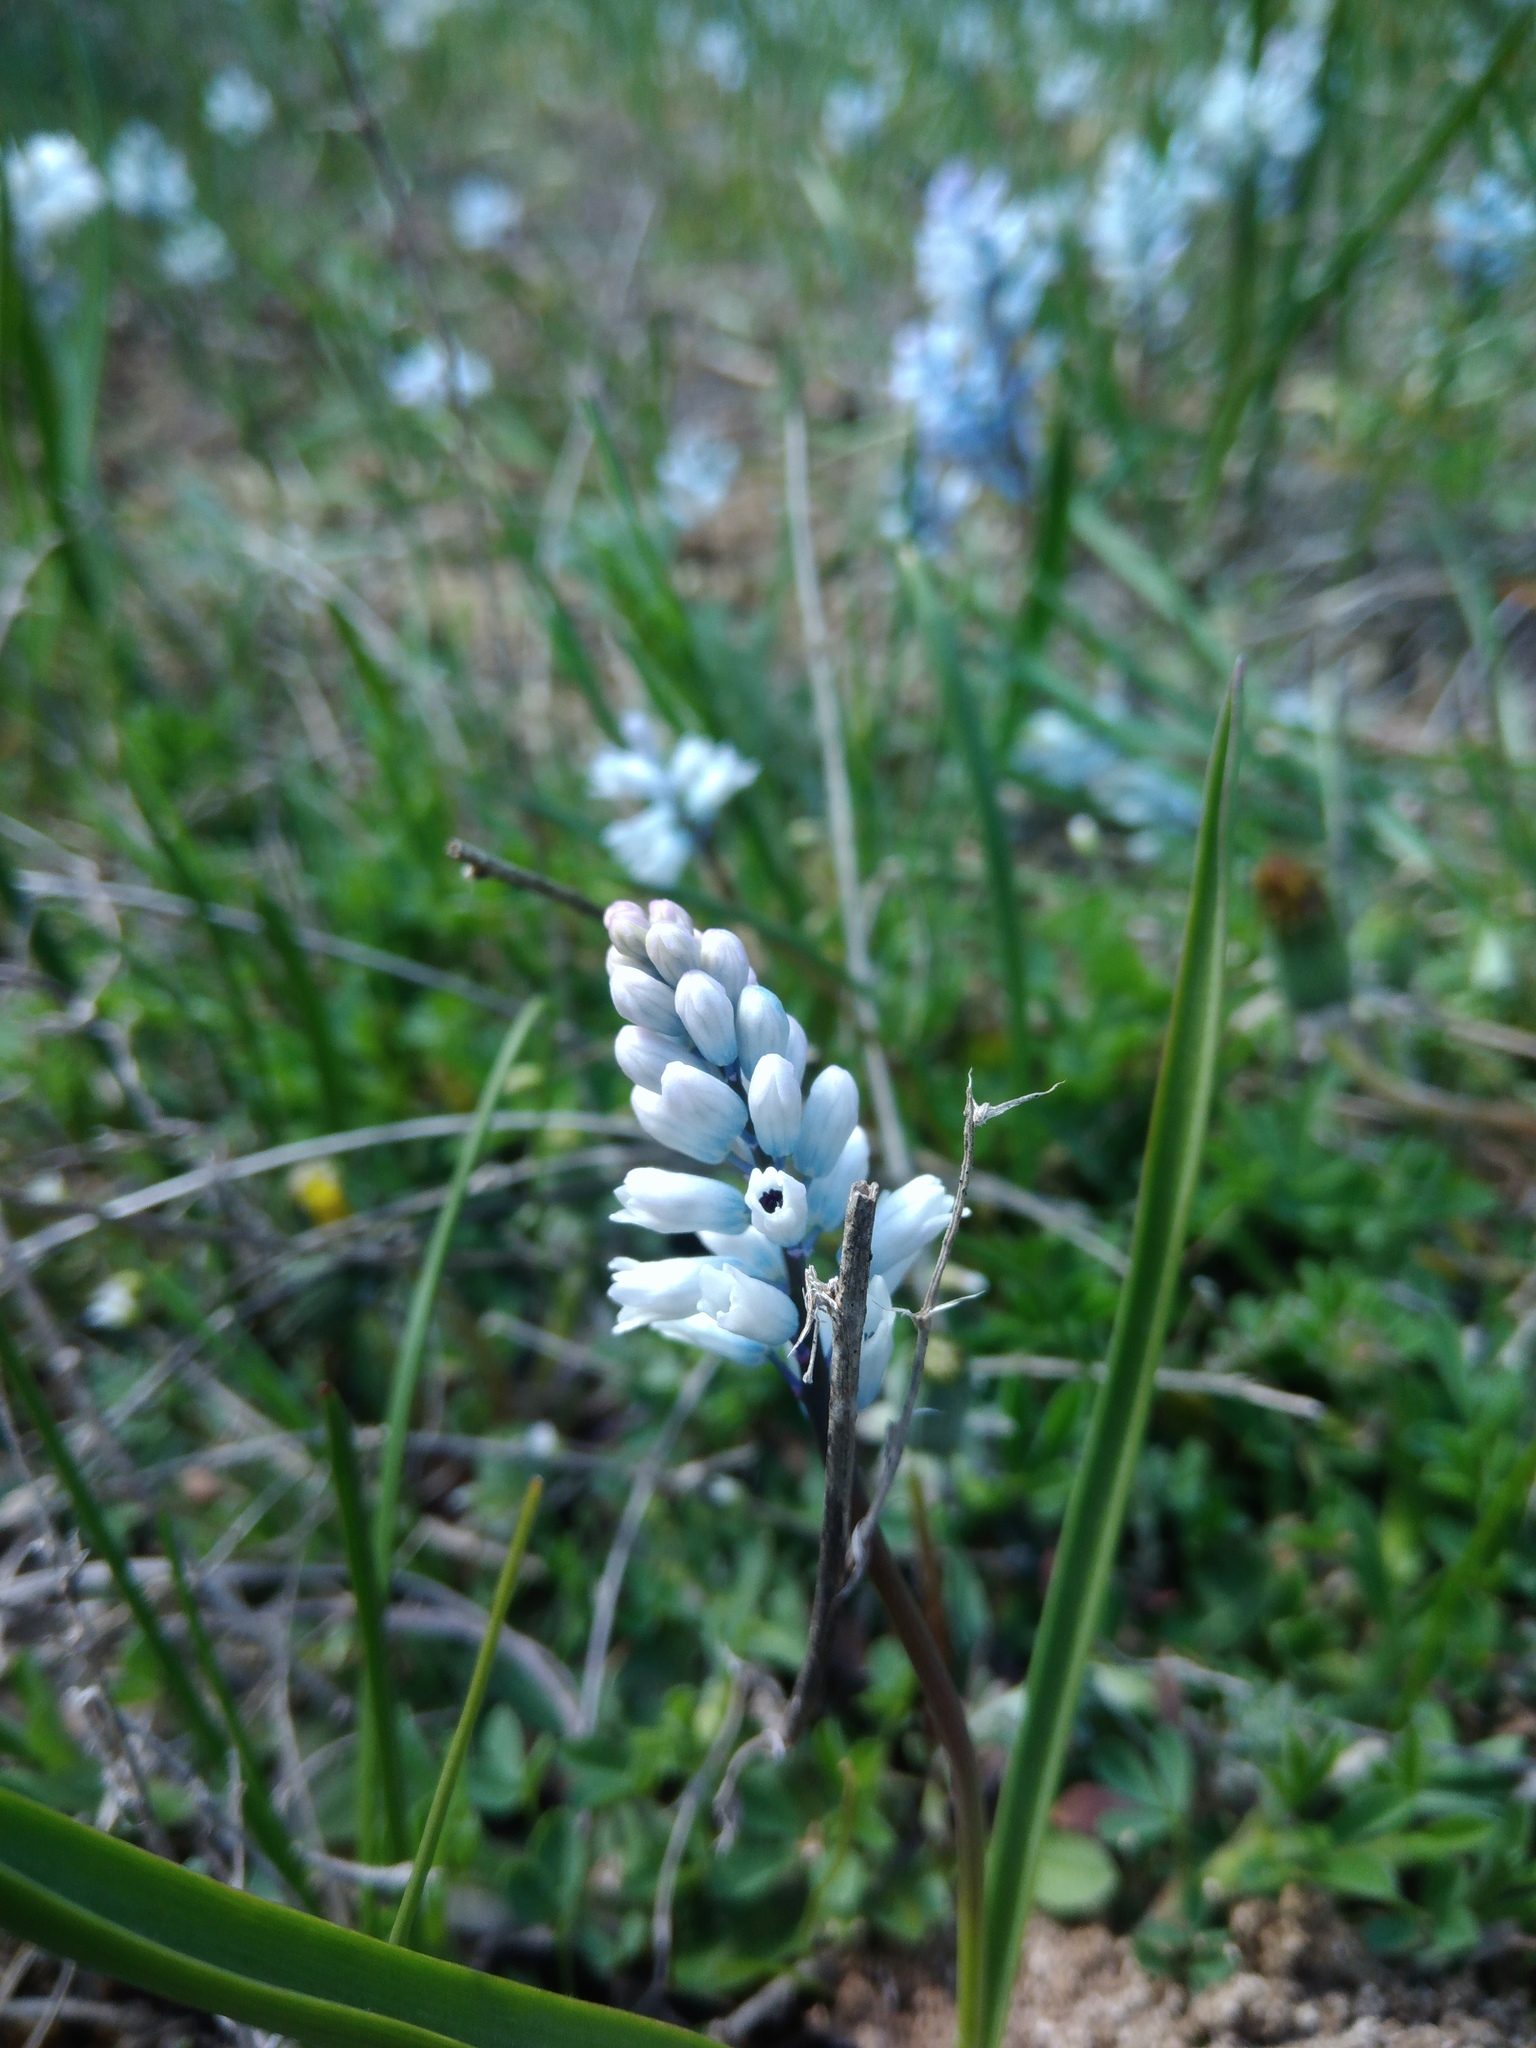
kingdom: Plantae
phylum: Tracheophyta
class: Liliopsida
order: Asparagales
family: Asparagaceae
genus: Hyacinthella
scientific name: Hyacinthella leucophaea
